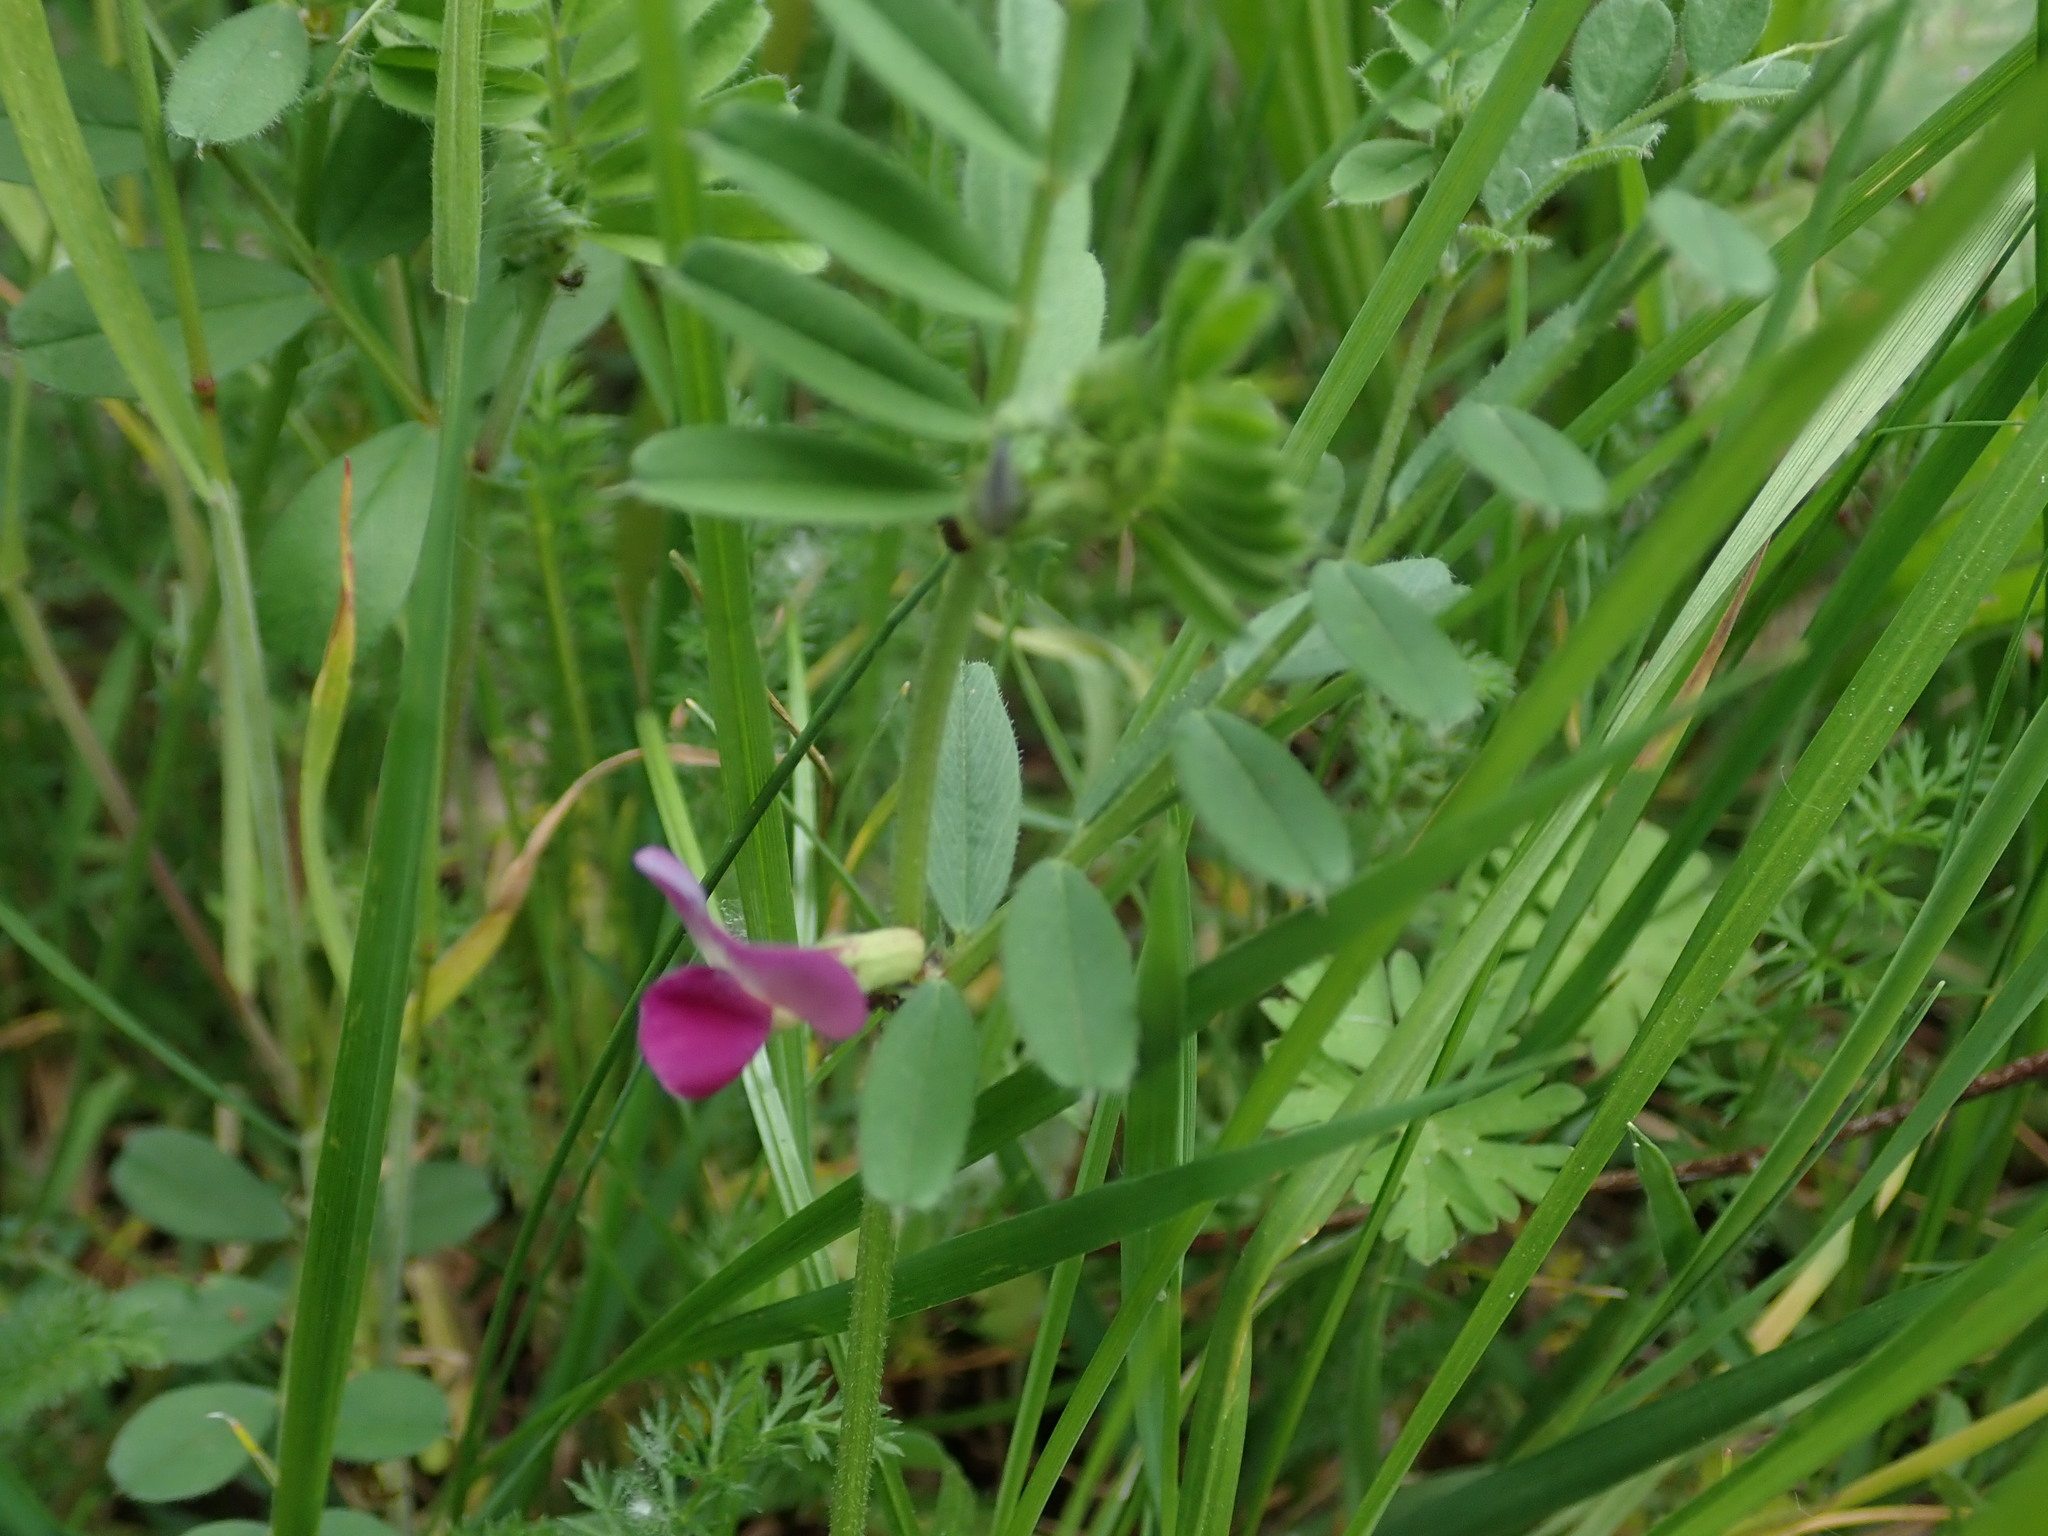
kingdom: Plantae
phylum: Tracheophyta
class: Magnoliopsida
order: Fabales
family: Fabaceae
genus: Vicia
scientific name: Vicia sativa
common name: Garden vetch
